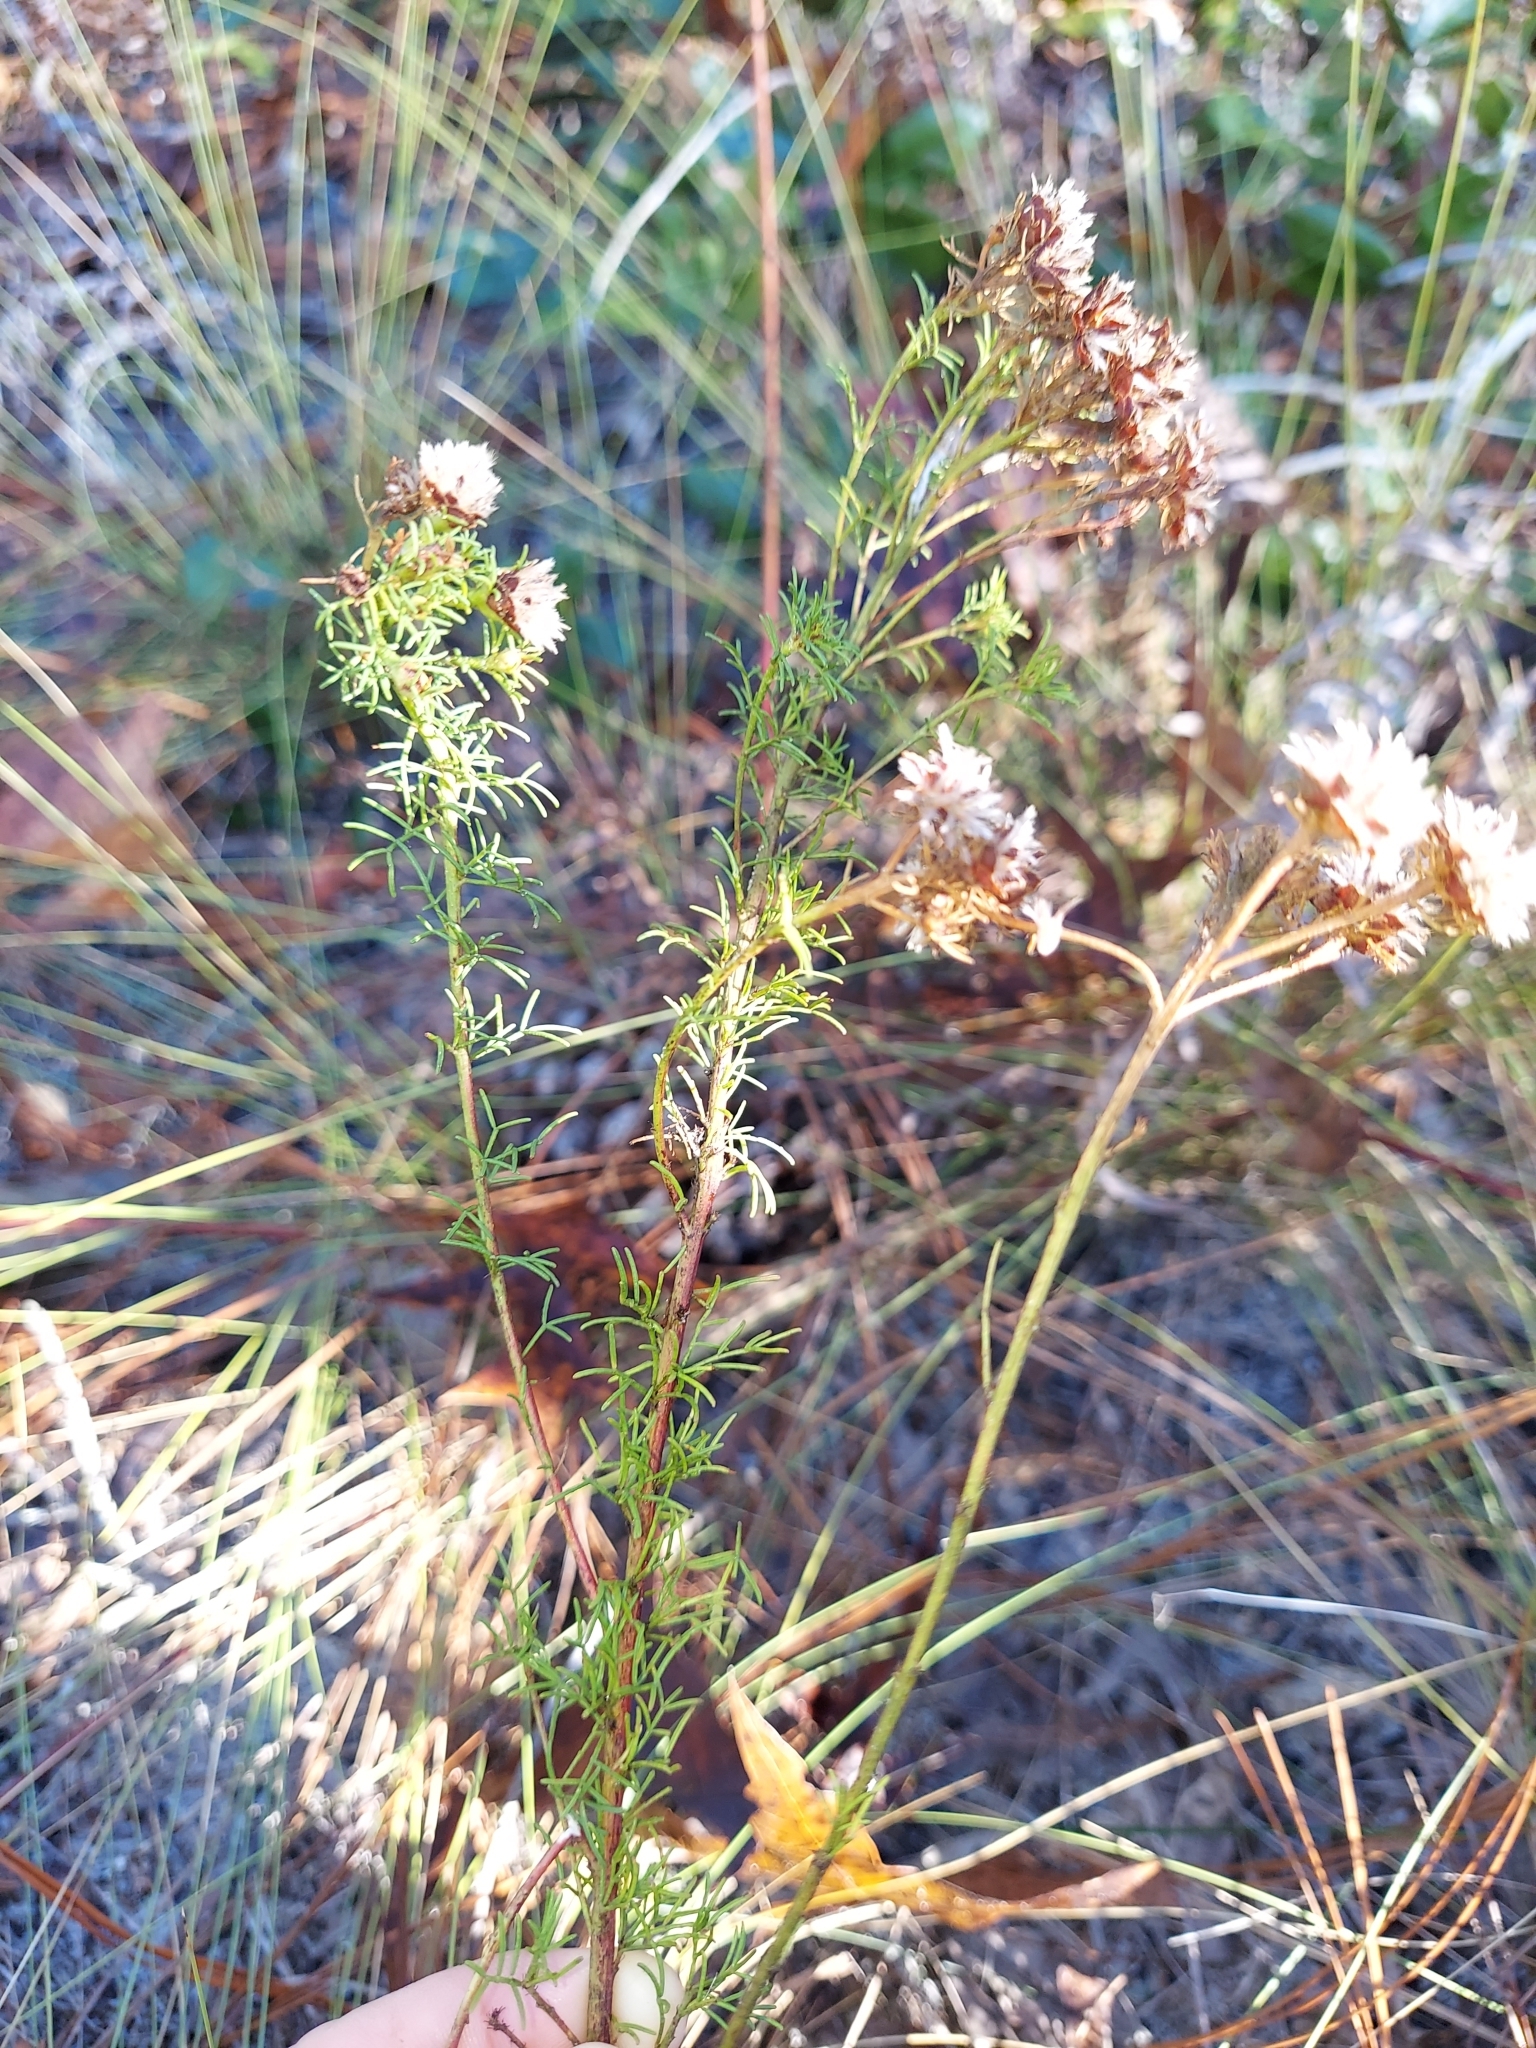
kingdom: Plantae
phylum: Tracheophyta
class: Magnoliopsida
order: Fabales
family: Fabaceae
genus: Dalea
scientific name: Dalea pinnata
